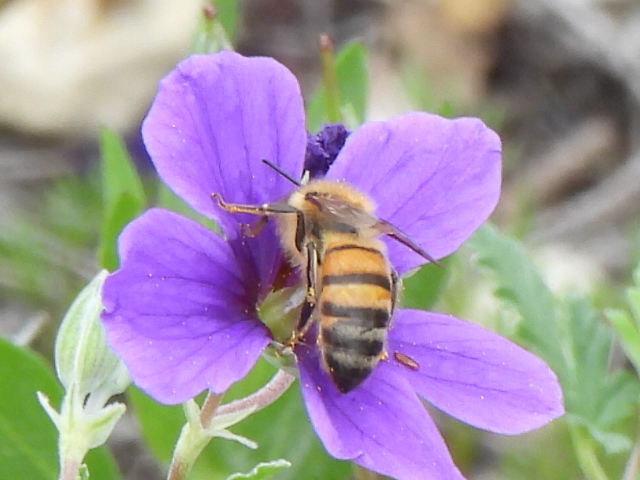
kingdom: Animalia
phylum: Arthropoda
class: Insecta
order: Hymenoptera
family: Apidae
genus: Apis
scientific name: Apis mellifera
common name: Honey bee
